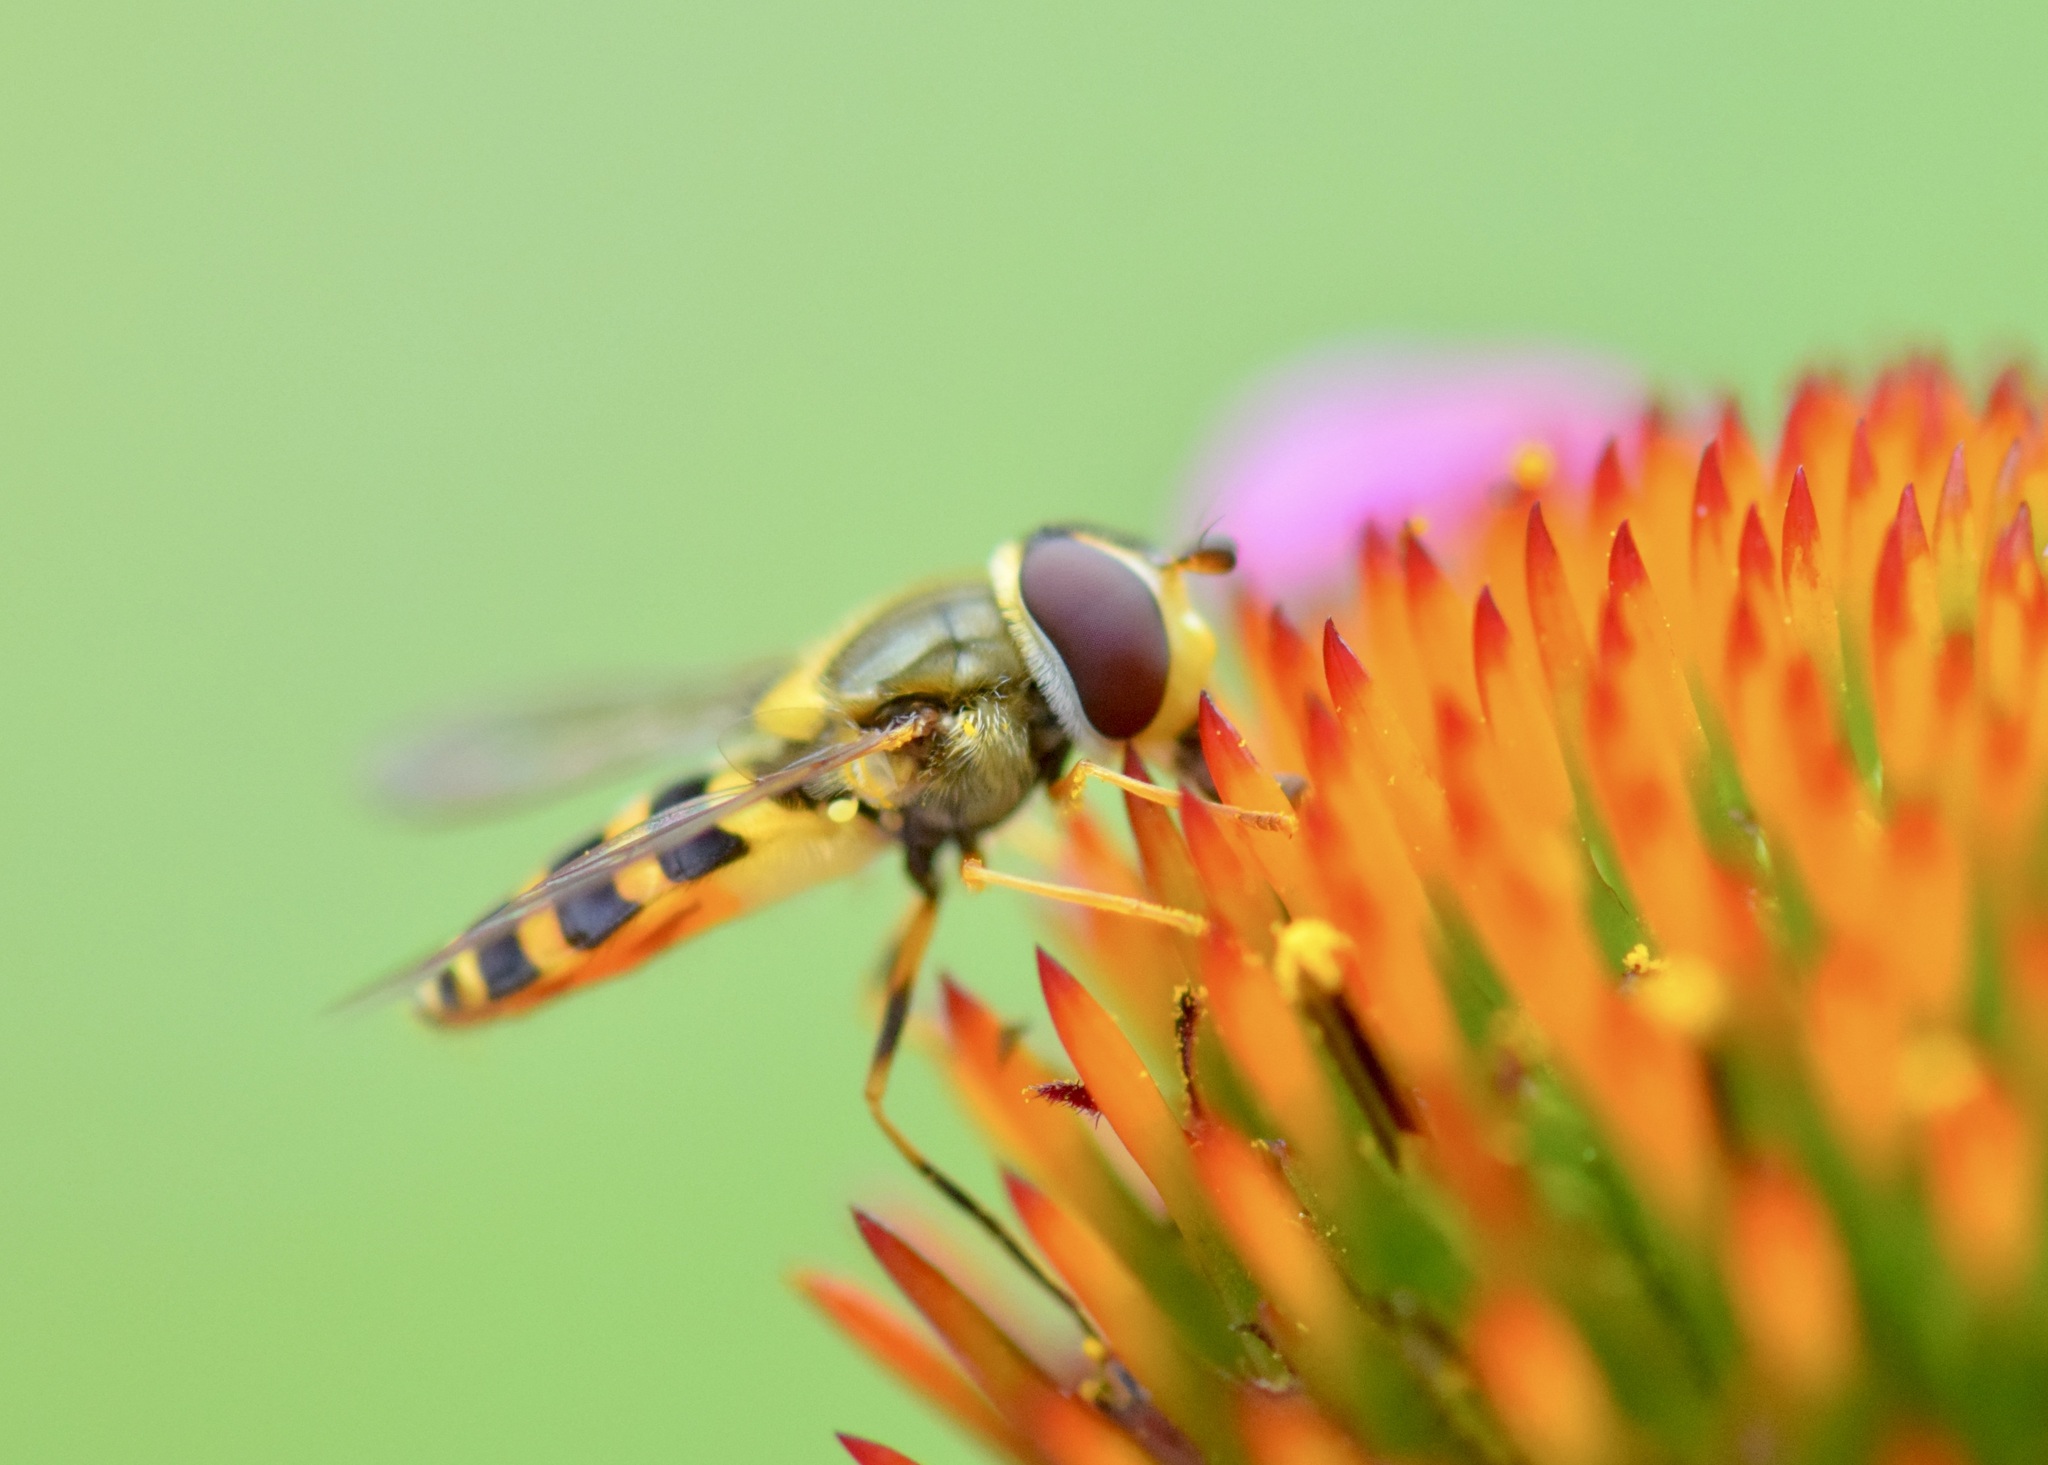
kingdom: Animalia
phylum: Arthropoda
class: Insecta
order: Diptera
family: Syrphidae
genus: Syrphus
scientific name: Syrphus rectus
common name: Yellow-legged flower fly
